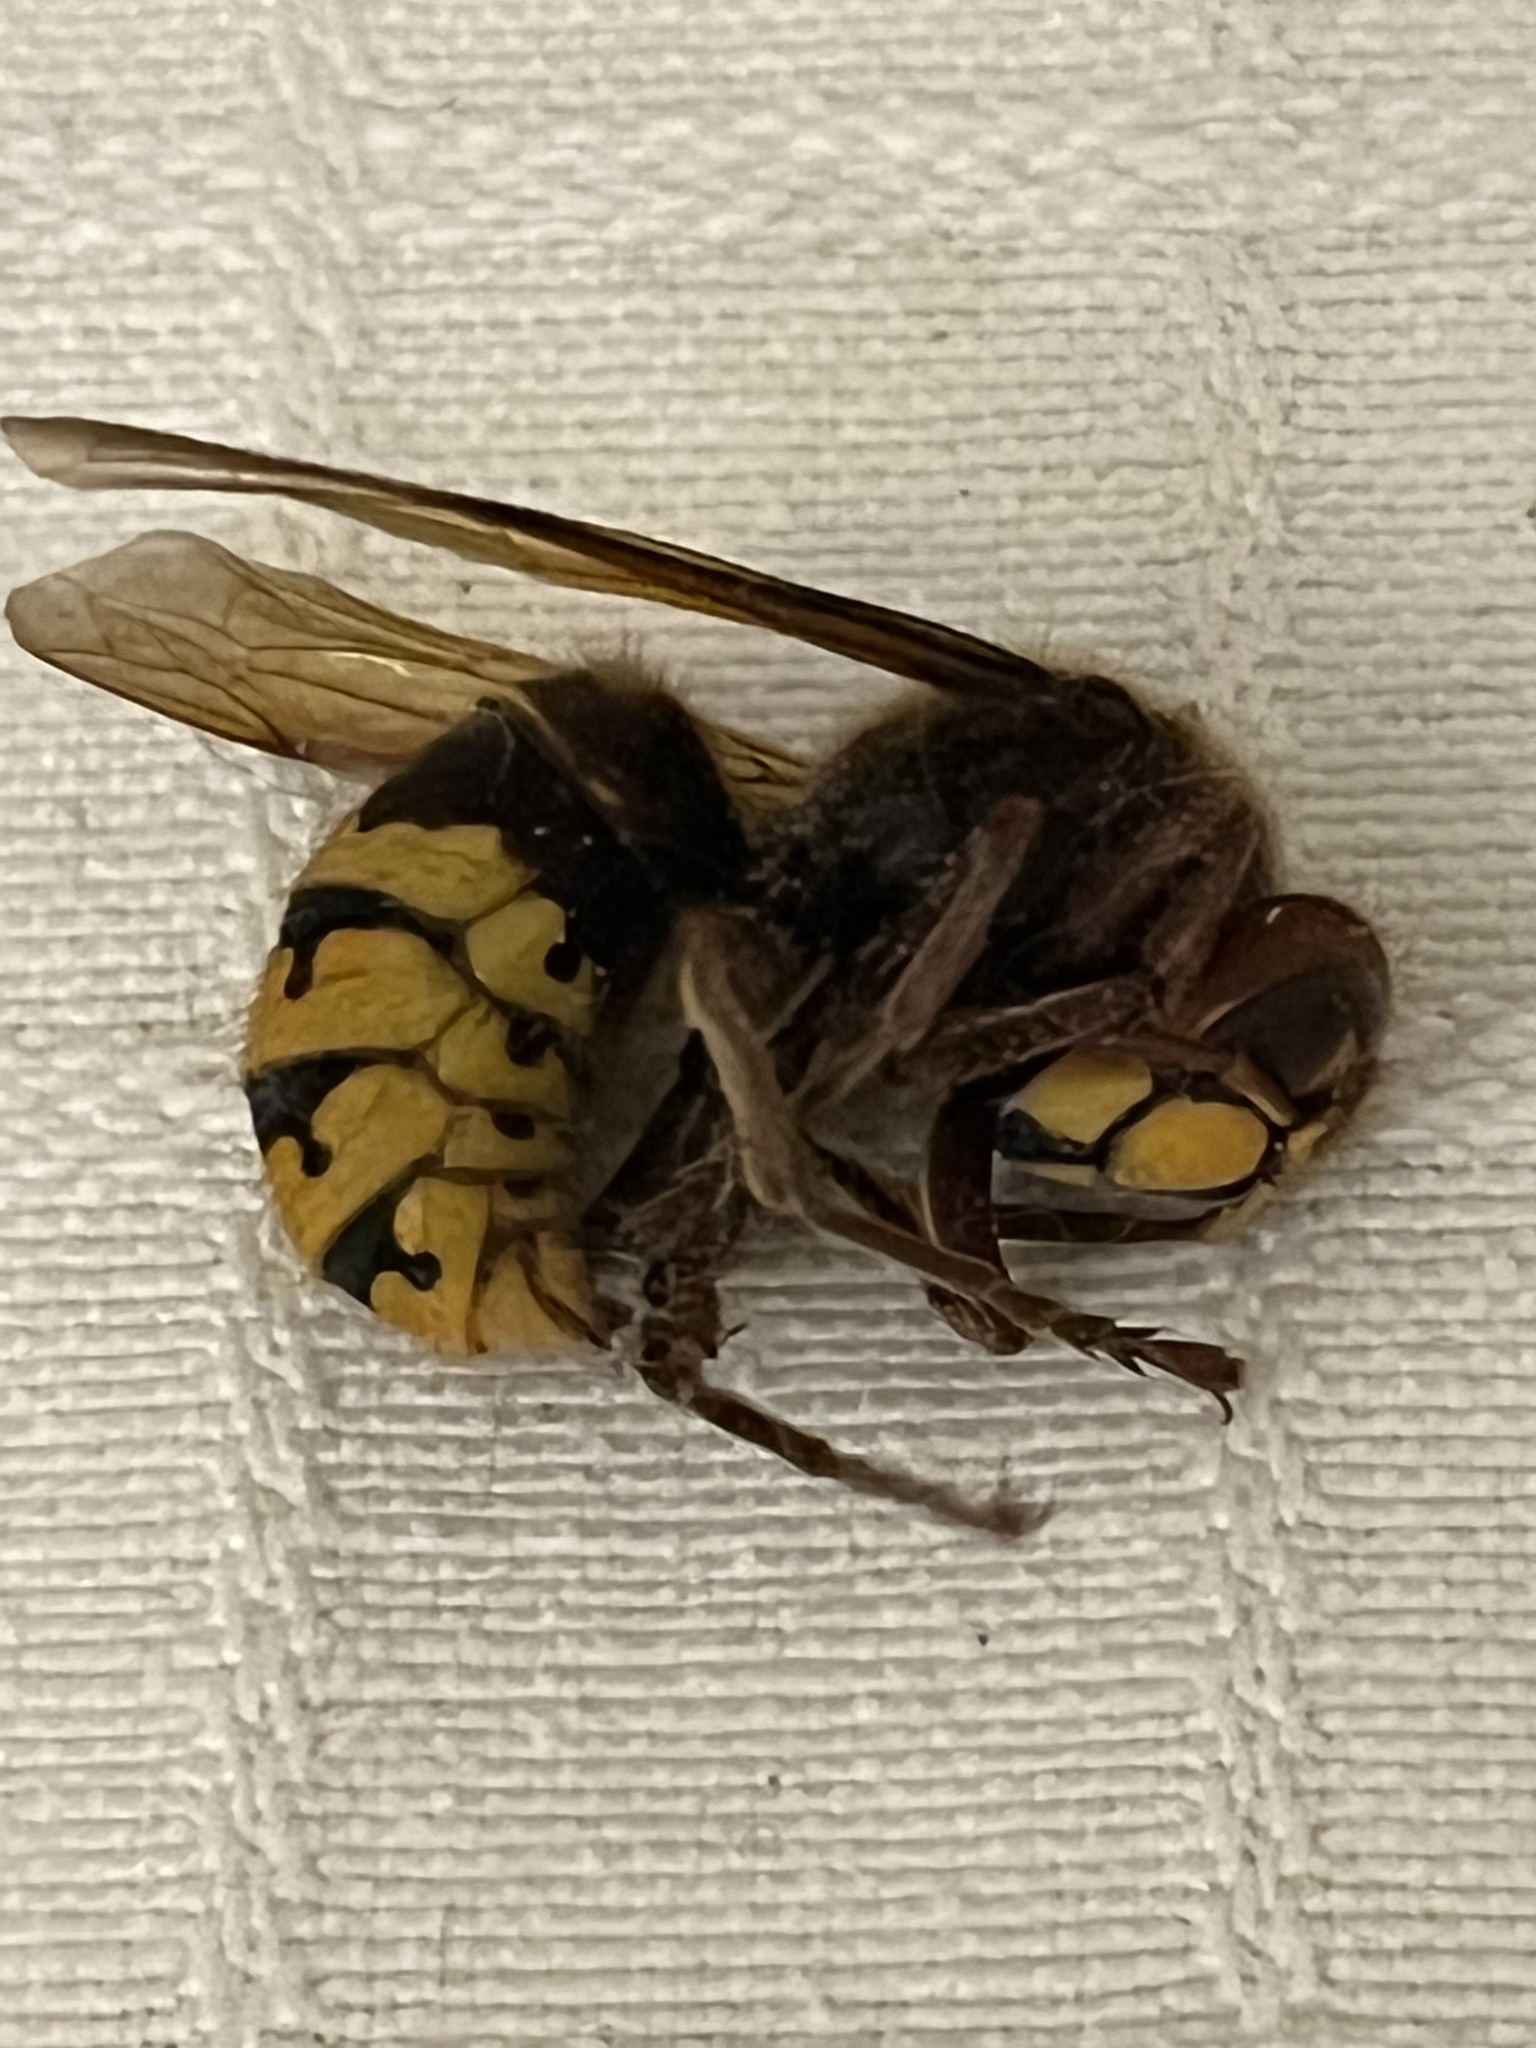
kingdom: Animalia
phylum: Arthropoda
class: Insecta
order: Hymenoptera
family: Vespidae
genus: Vespa
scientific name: Vespa crabro
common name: Hornet
